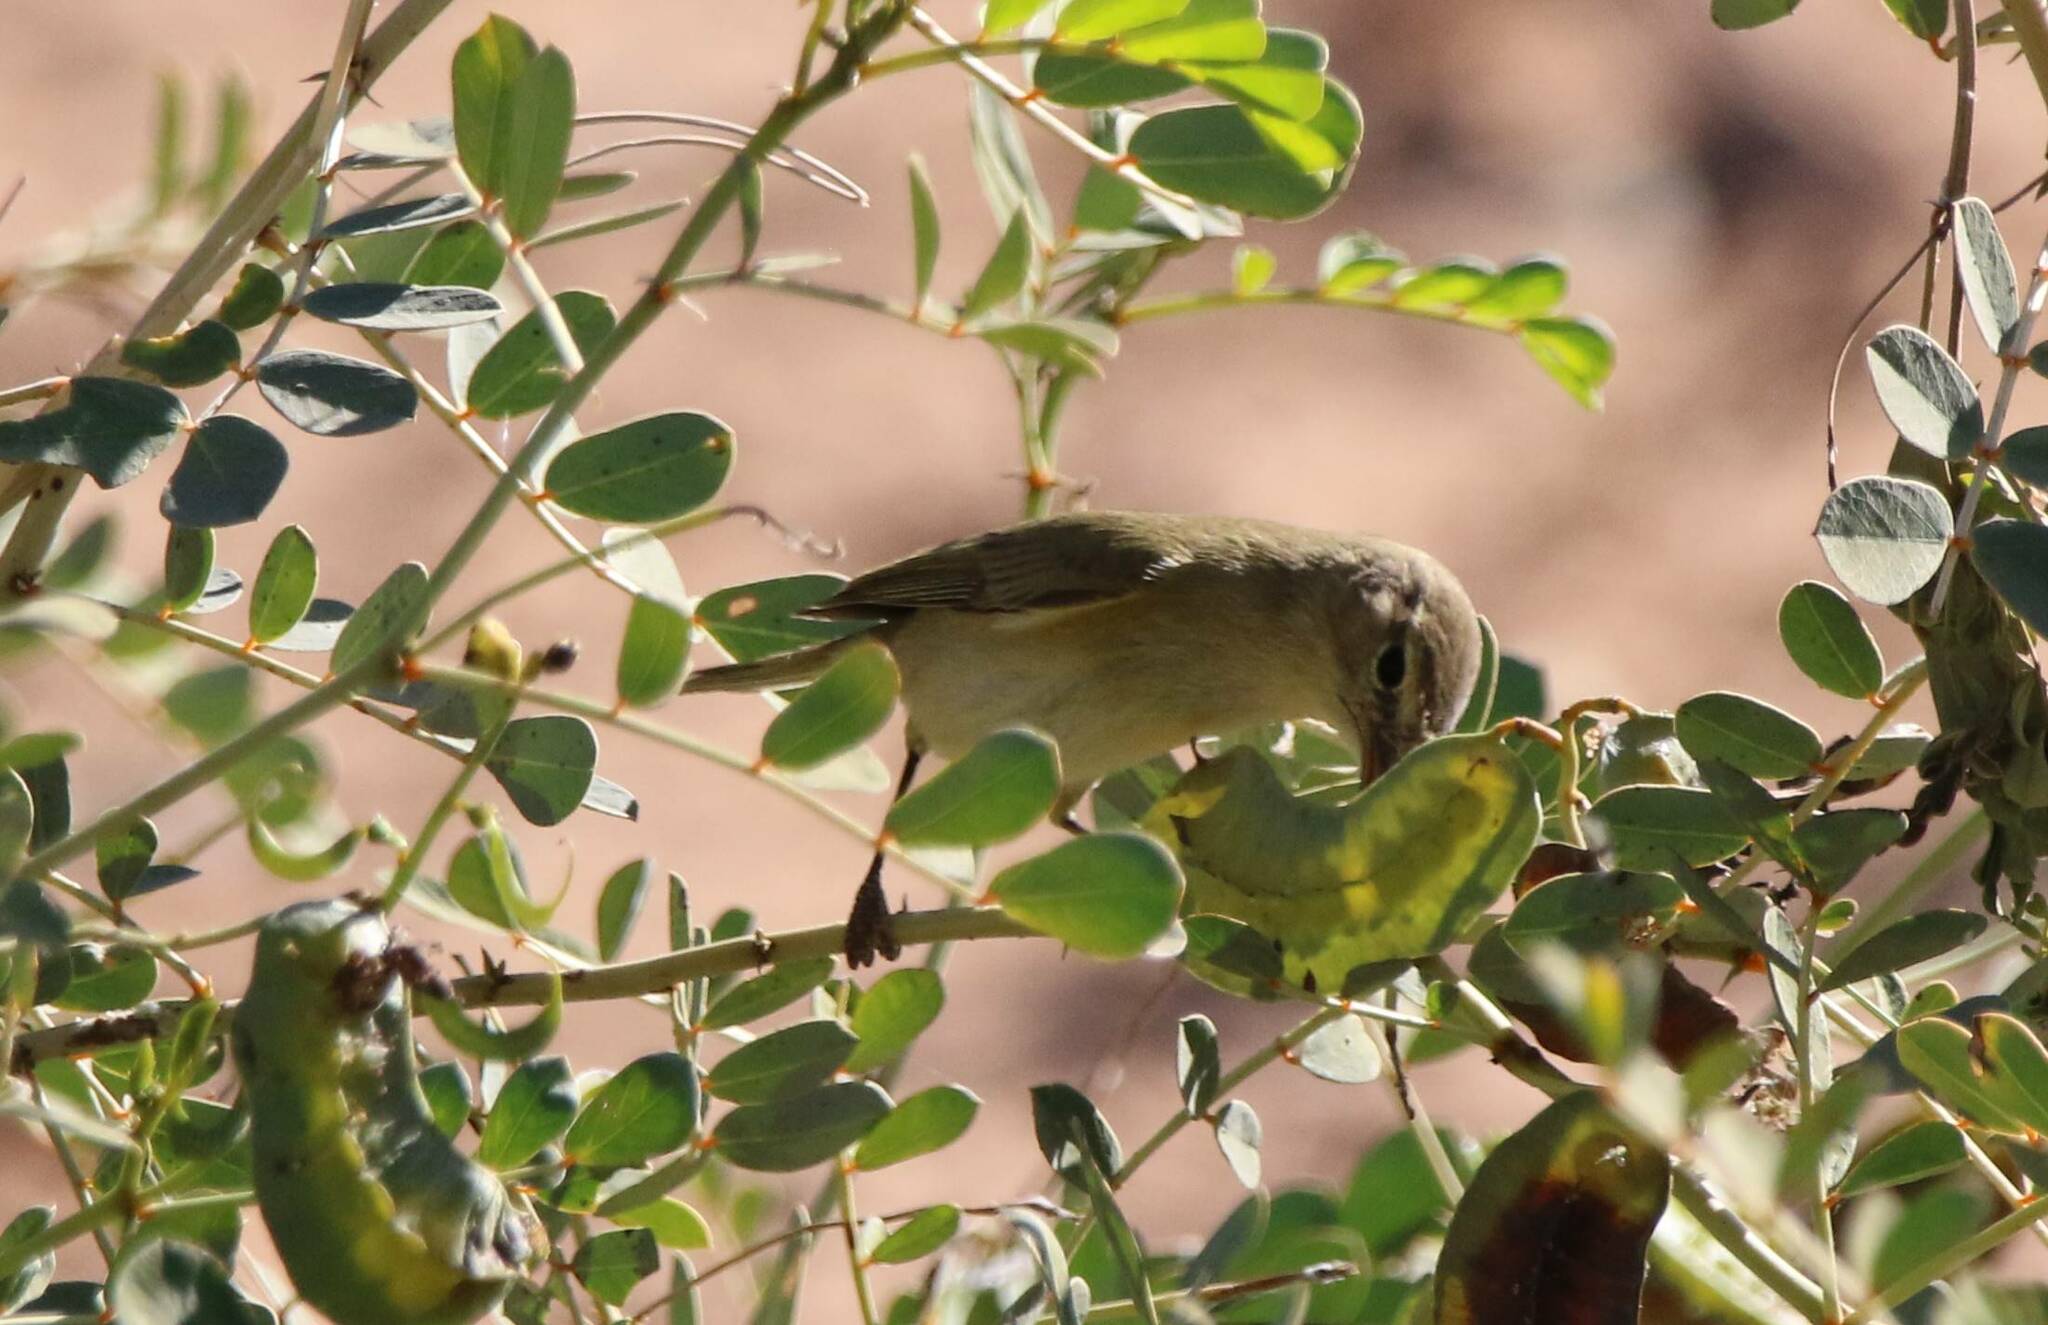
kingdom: Animalia
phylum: Chordata
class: Aves
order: Passeriformes
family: Phylloscopidae
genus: Phylloscopus
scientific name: Phylloscopus collybita
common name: Common chiffchaff
